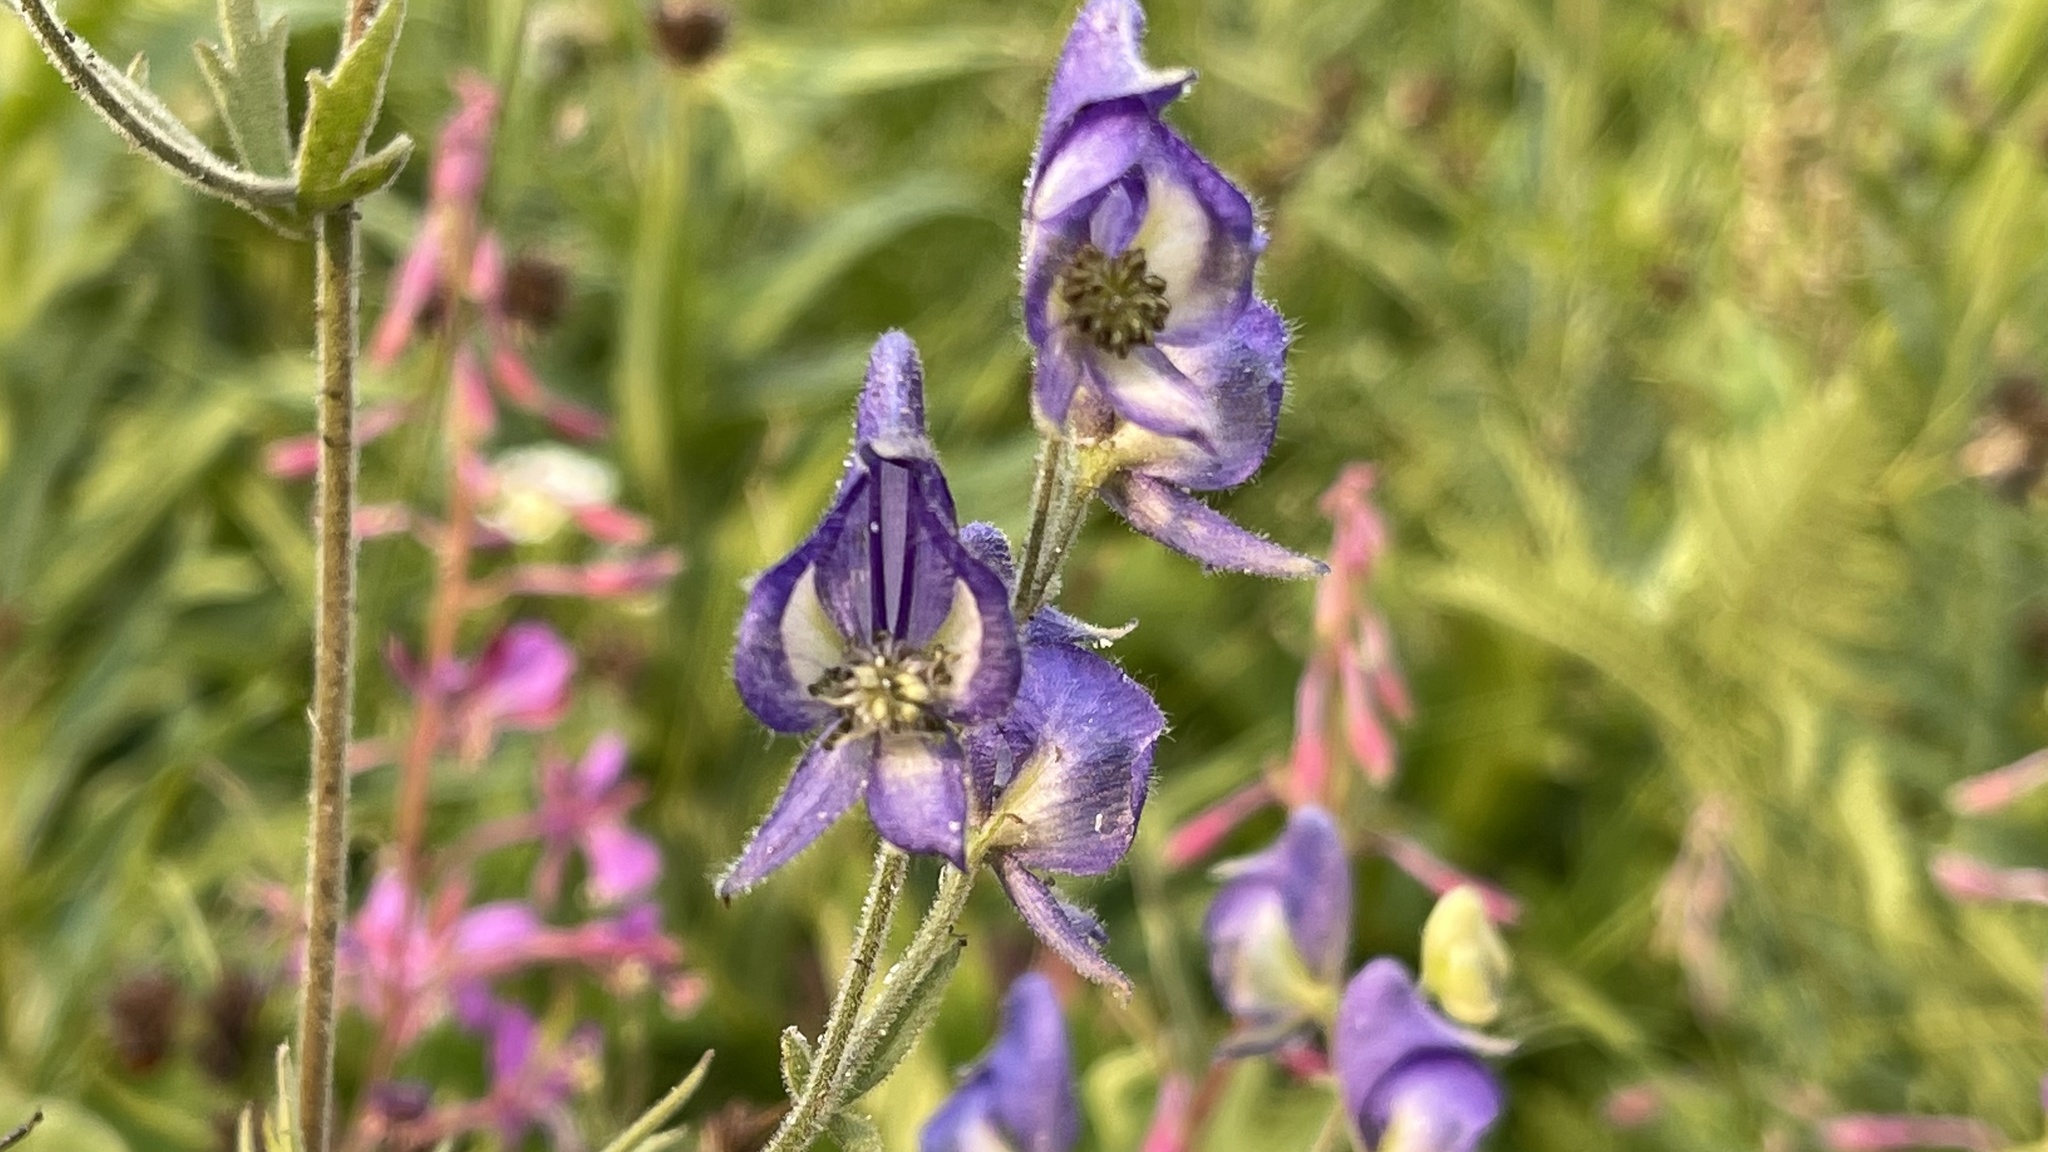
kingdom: Plantae
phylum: Tracheophyta
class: Magnoliopsida
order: Ranunculales
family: Ranunculaceae
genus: Aconitum
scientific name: Aconitum columbianum
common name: Columbia aconite
